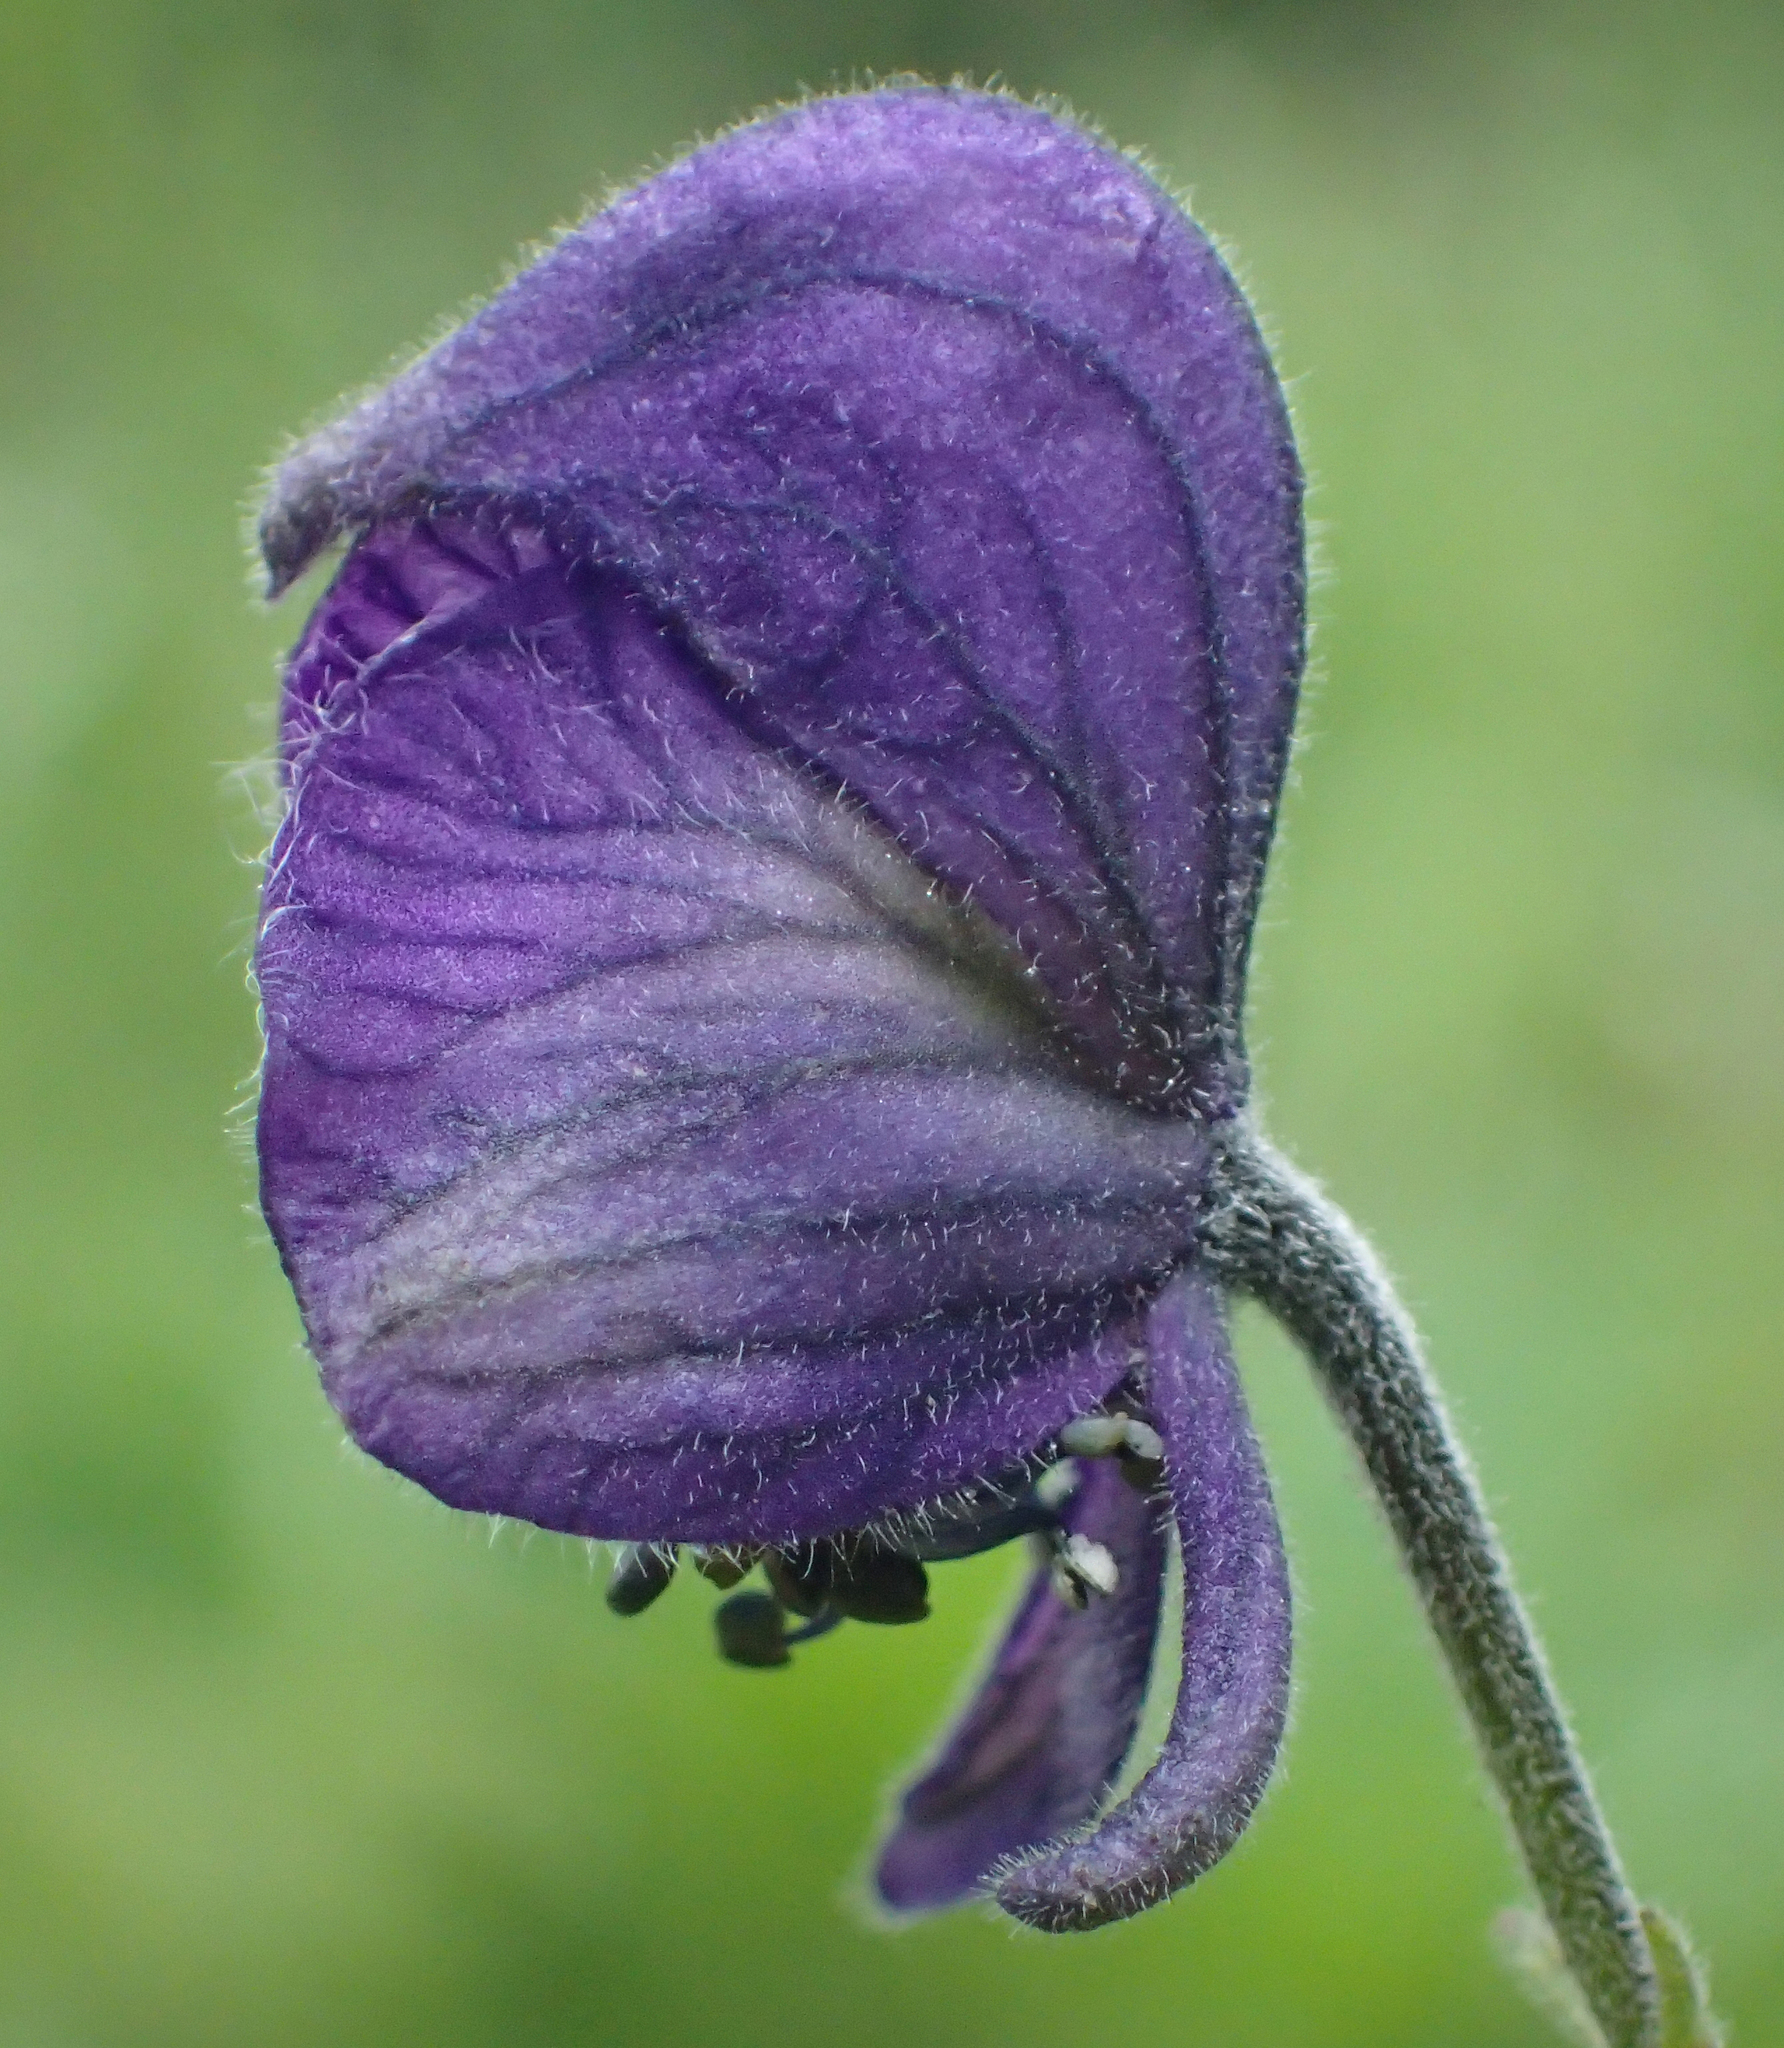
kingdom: Plantae
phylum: Tracheophyta
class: Magnoliopsida
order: Ranunculales
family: Ranunculaceae
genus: Aconitum
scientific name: Aconitum delphiniifolium
